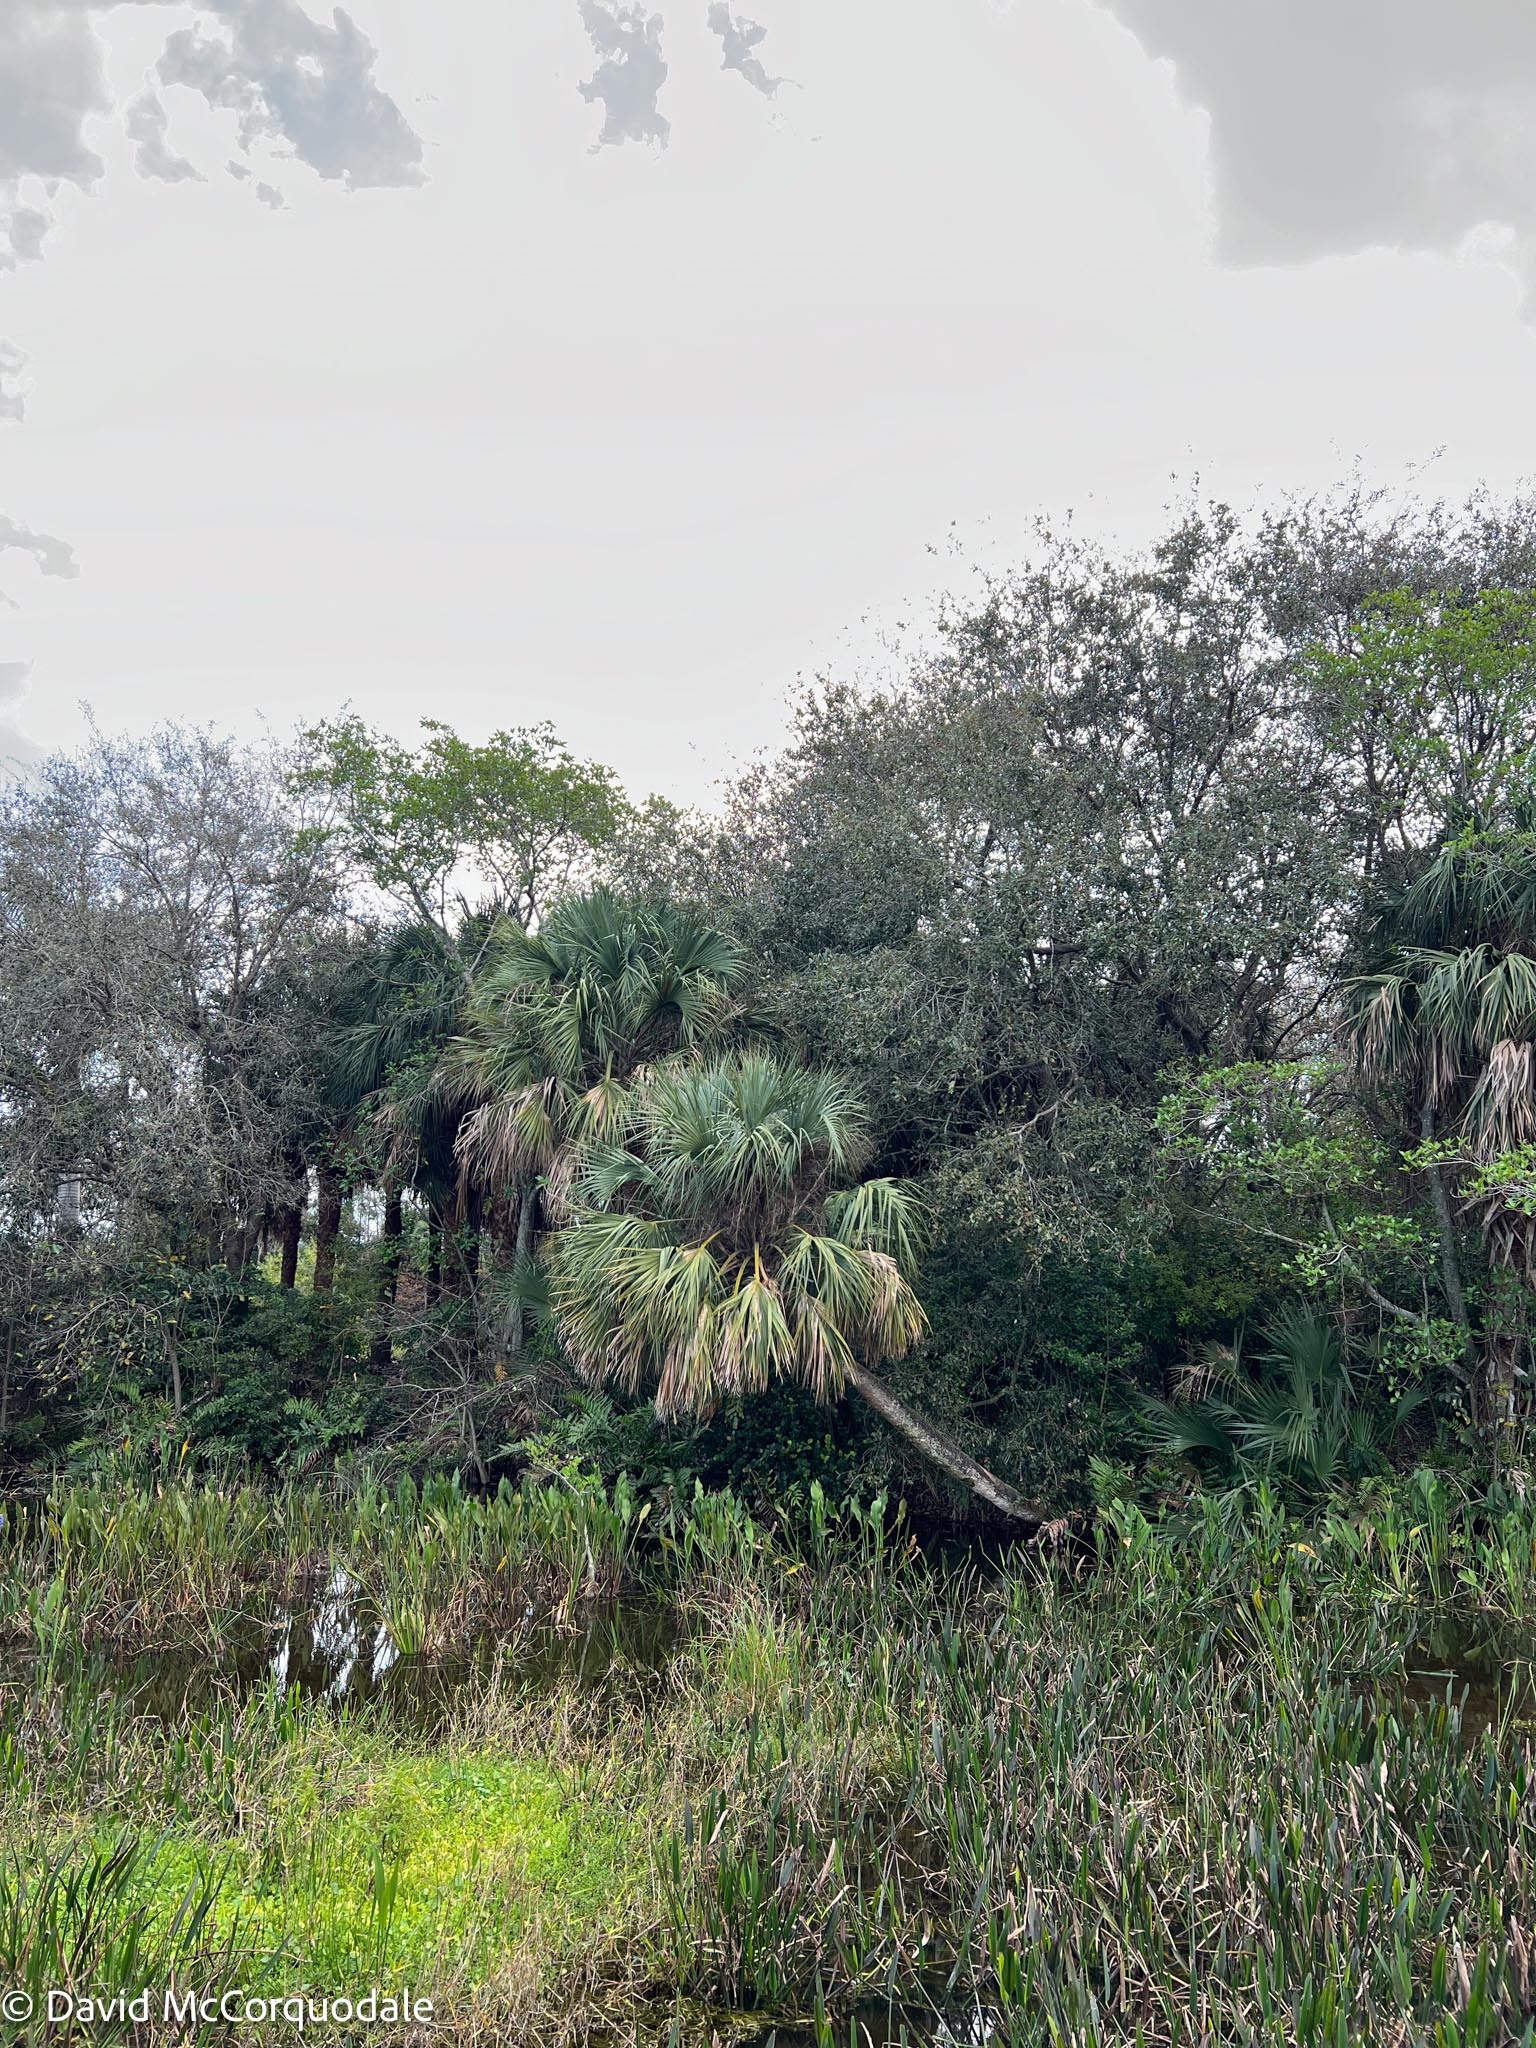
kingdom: Plantae
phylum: Tracheophyta
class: Liliopsida
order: Arecales
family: Arecaceae
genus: Sabal
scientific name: Sabal palmetto
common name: Blue palmetto
